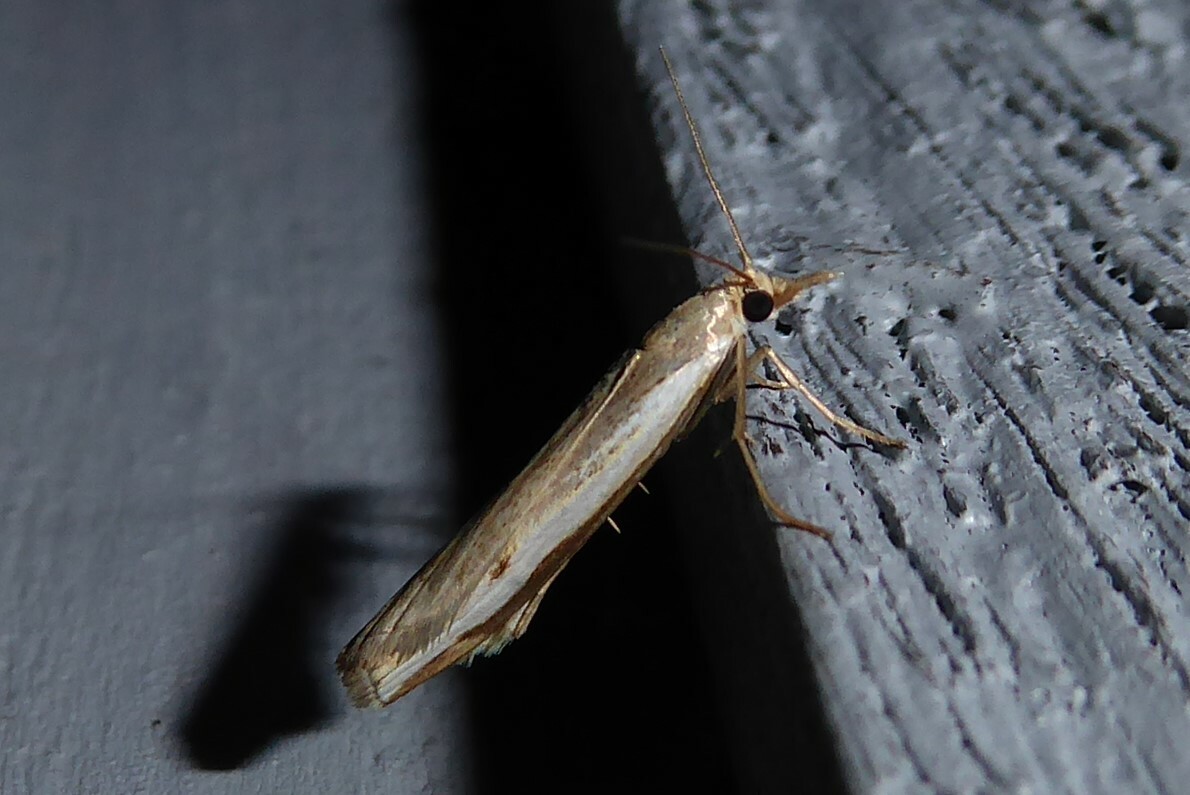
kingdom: Animalia
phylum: Arthropoda
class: Insecta
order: Lepidoptera
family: Crambidae
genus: Orocrambus
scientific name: Orocrambus flexuosellus
